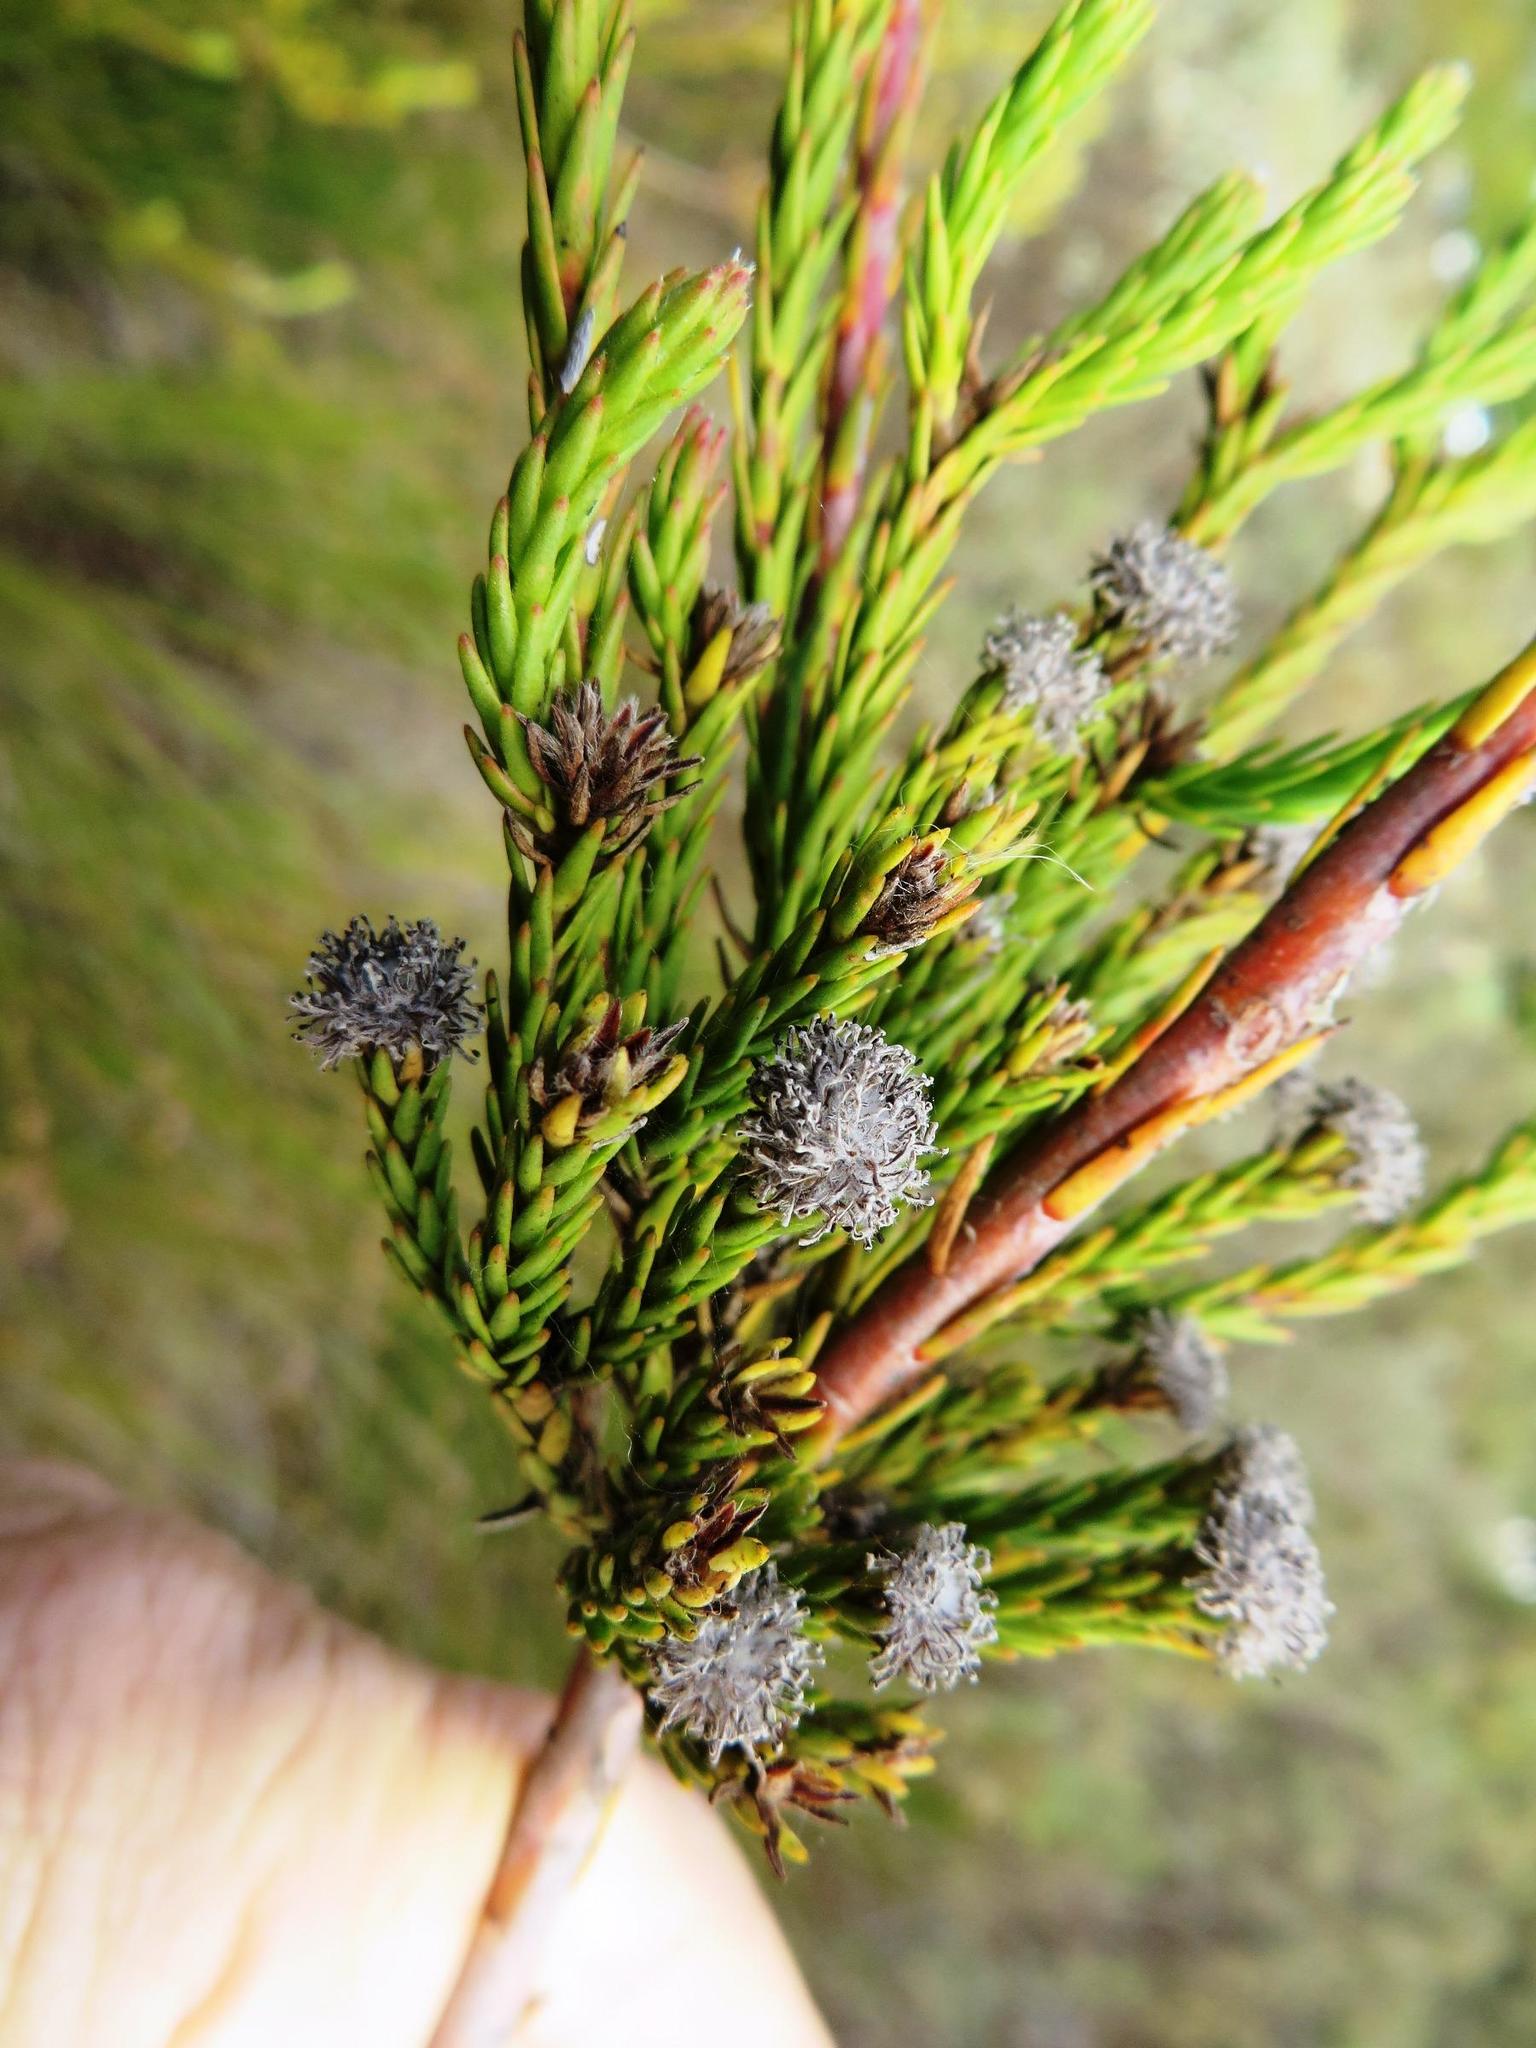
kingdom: Plantae
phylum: Tracheophyta
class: Magnoliopsida
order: Proteales
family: Proteaceae
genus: Leucadendron
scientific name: Leucadendron corymbosum
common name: Swartveld conebush
